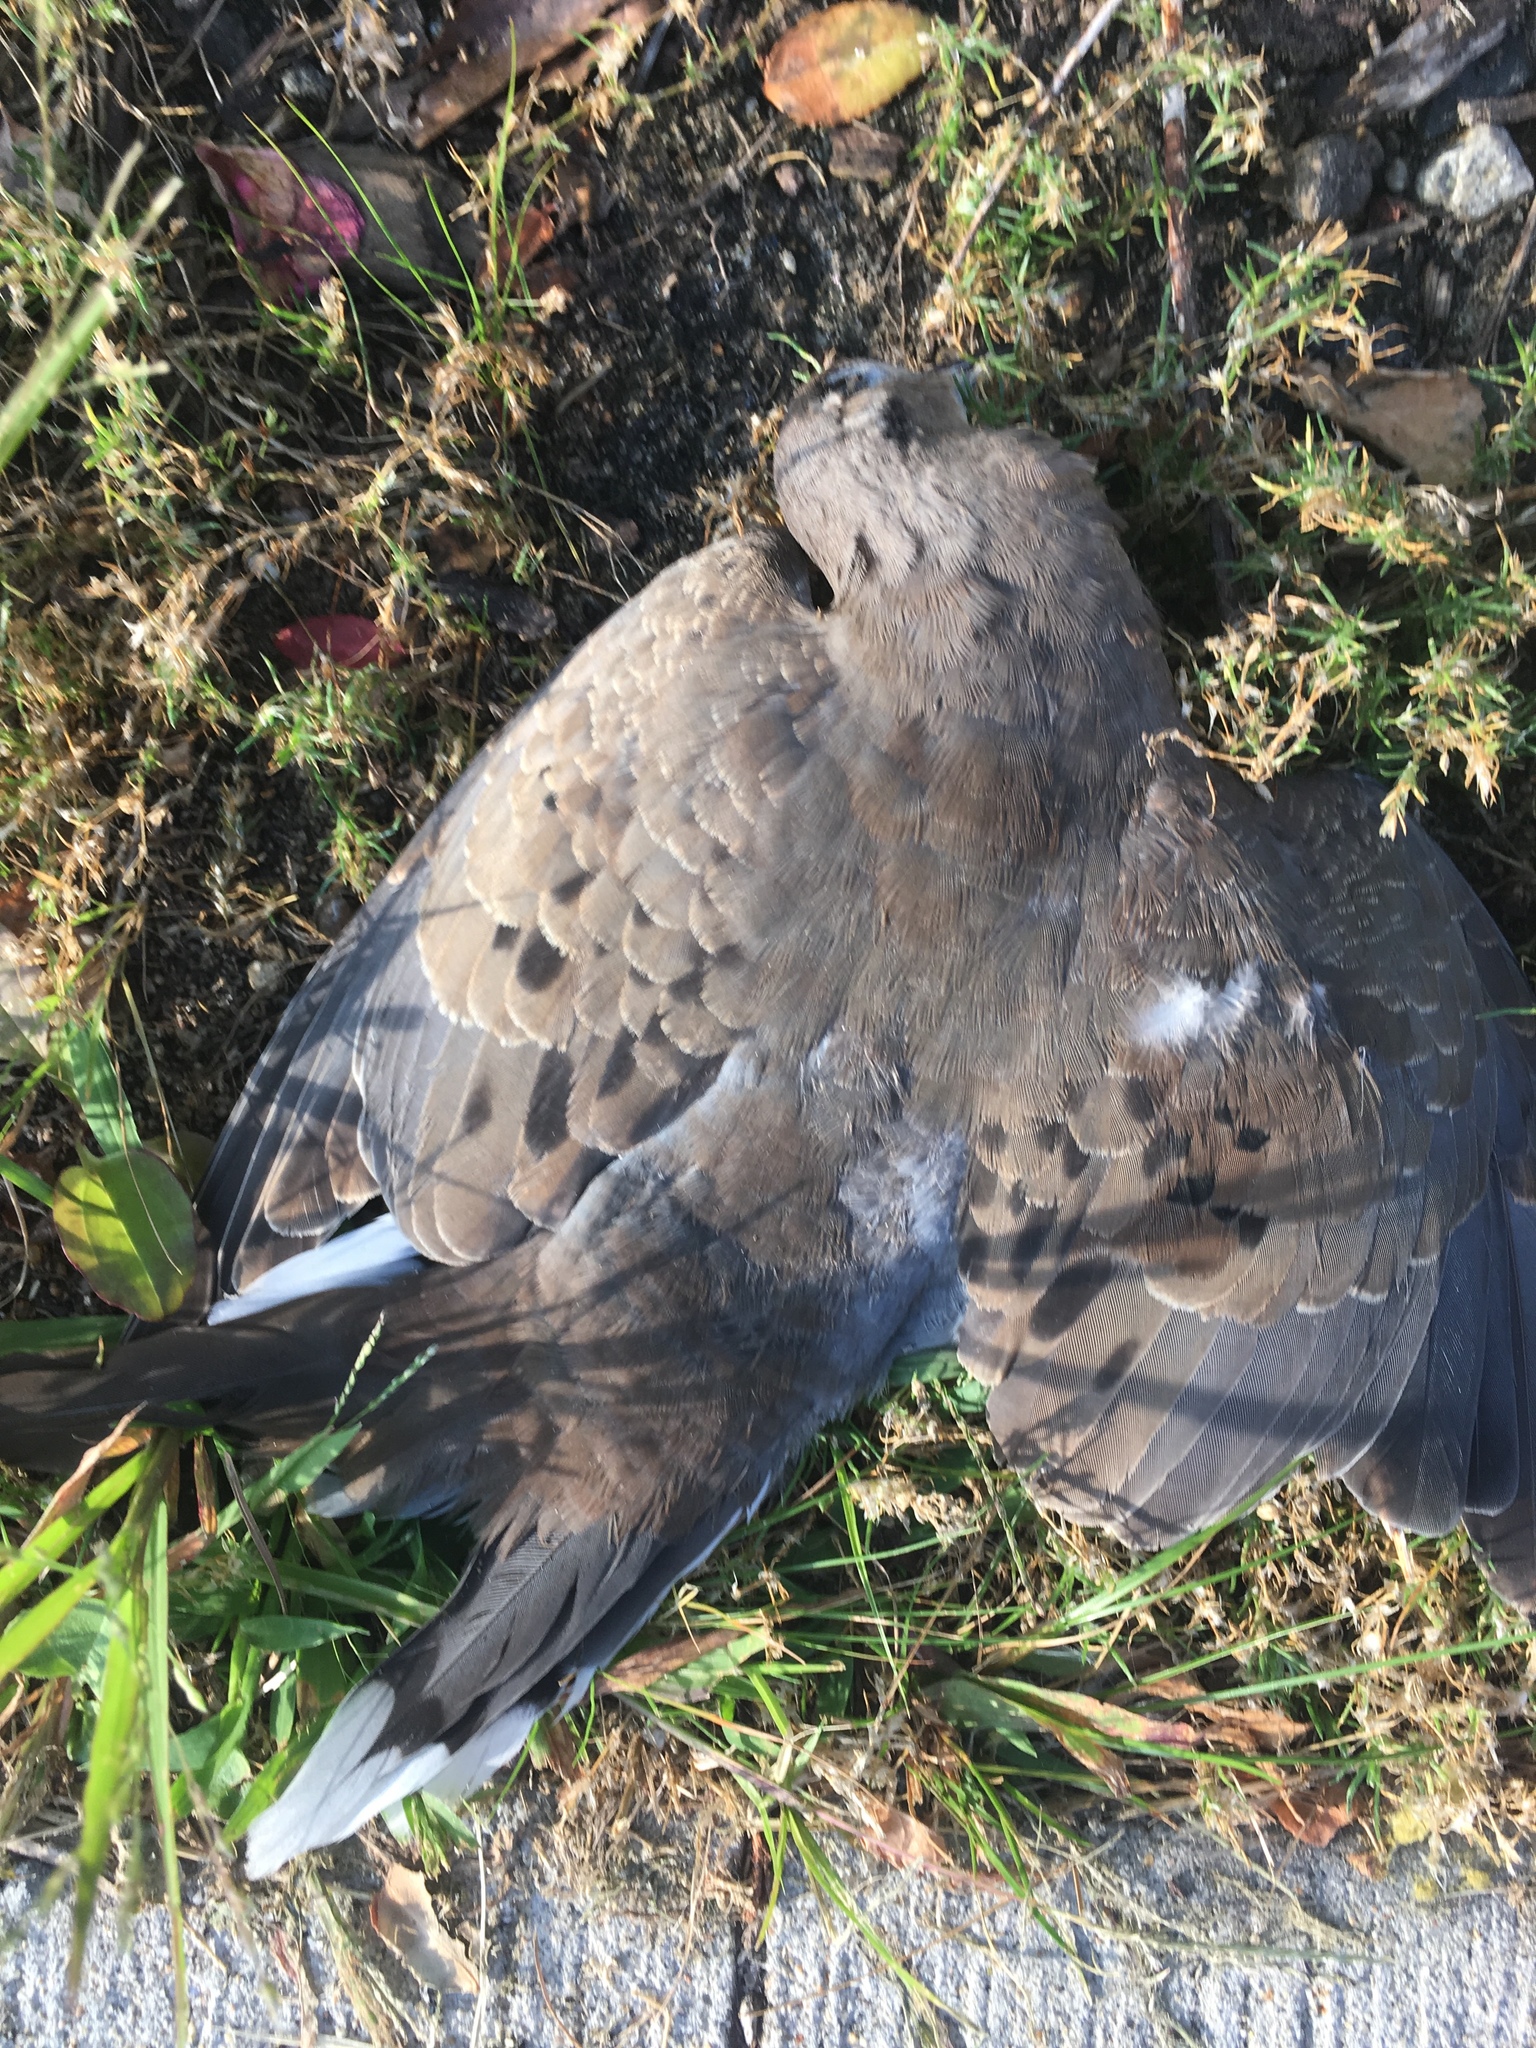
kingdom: Animalia
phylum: Chordata
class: Aves
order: Columbiformes
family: Columbidae
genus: Zenaida
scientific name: Zenaida macroura
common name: Mourning dove
